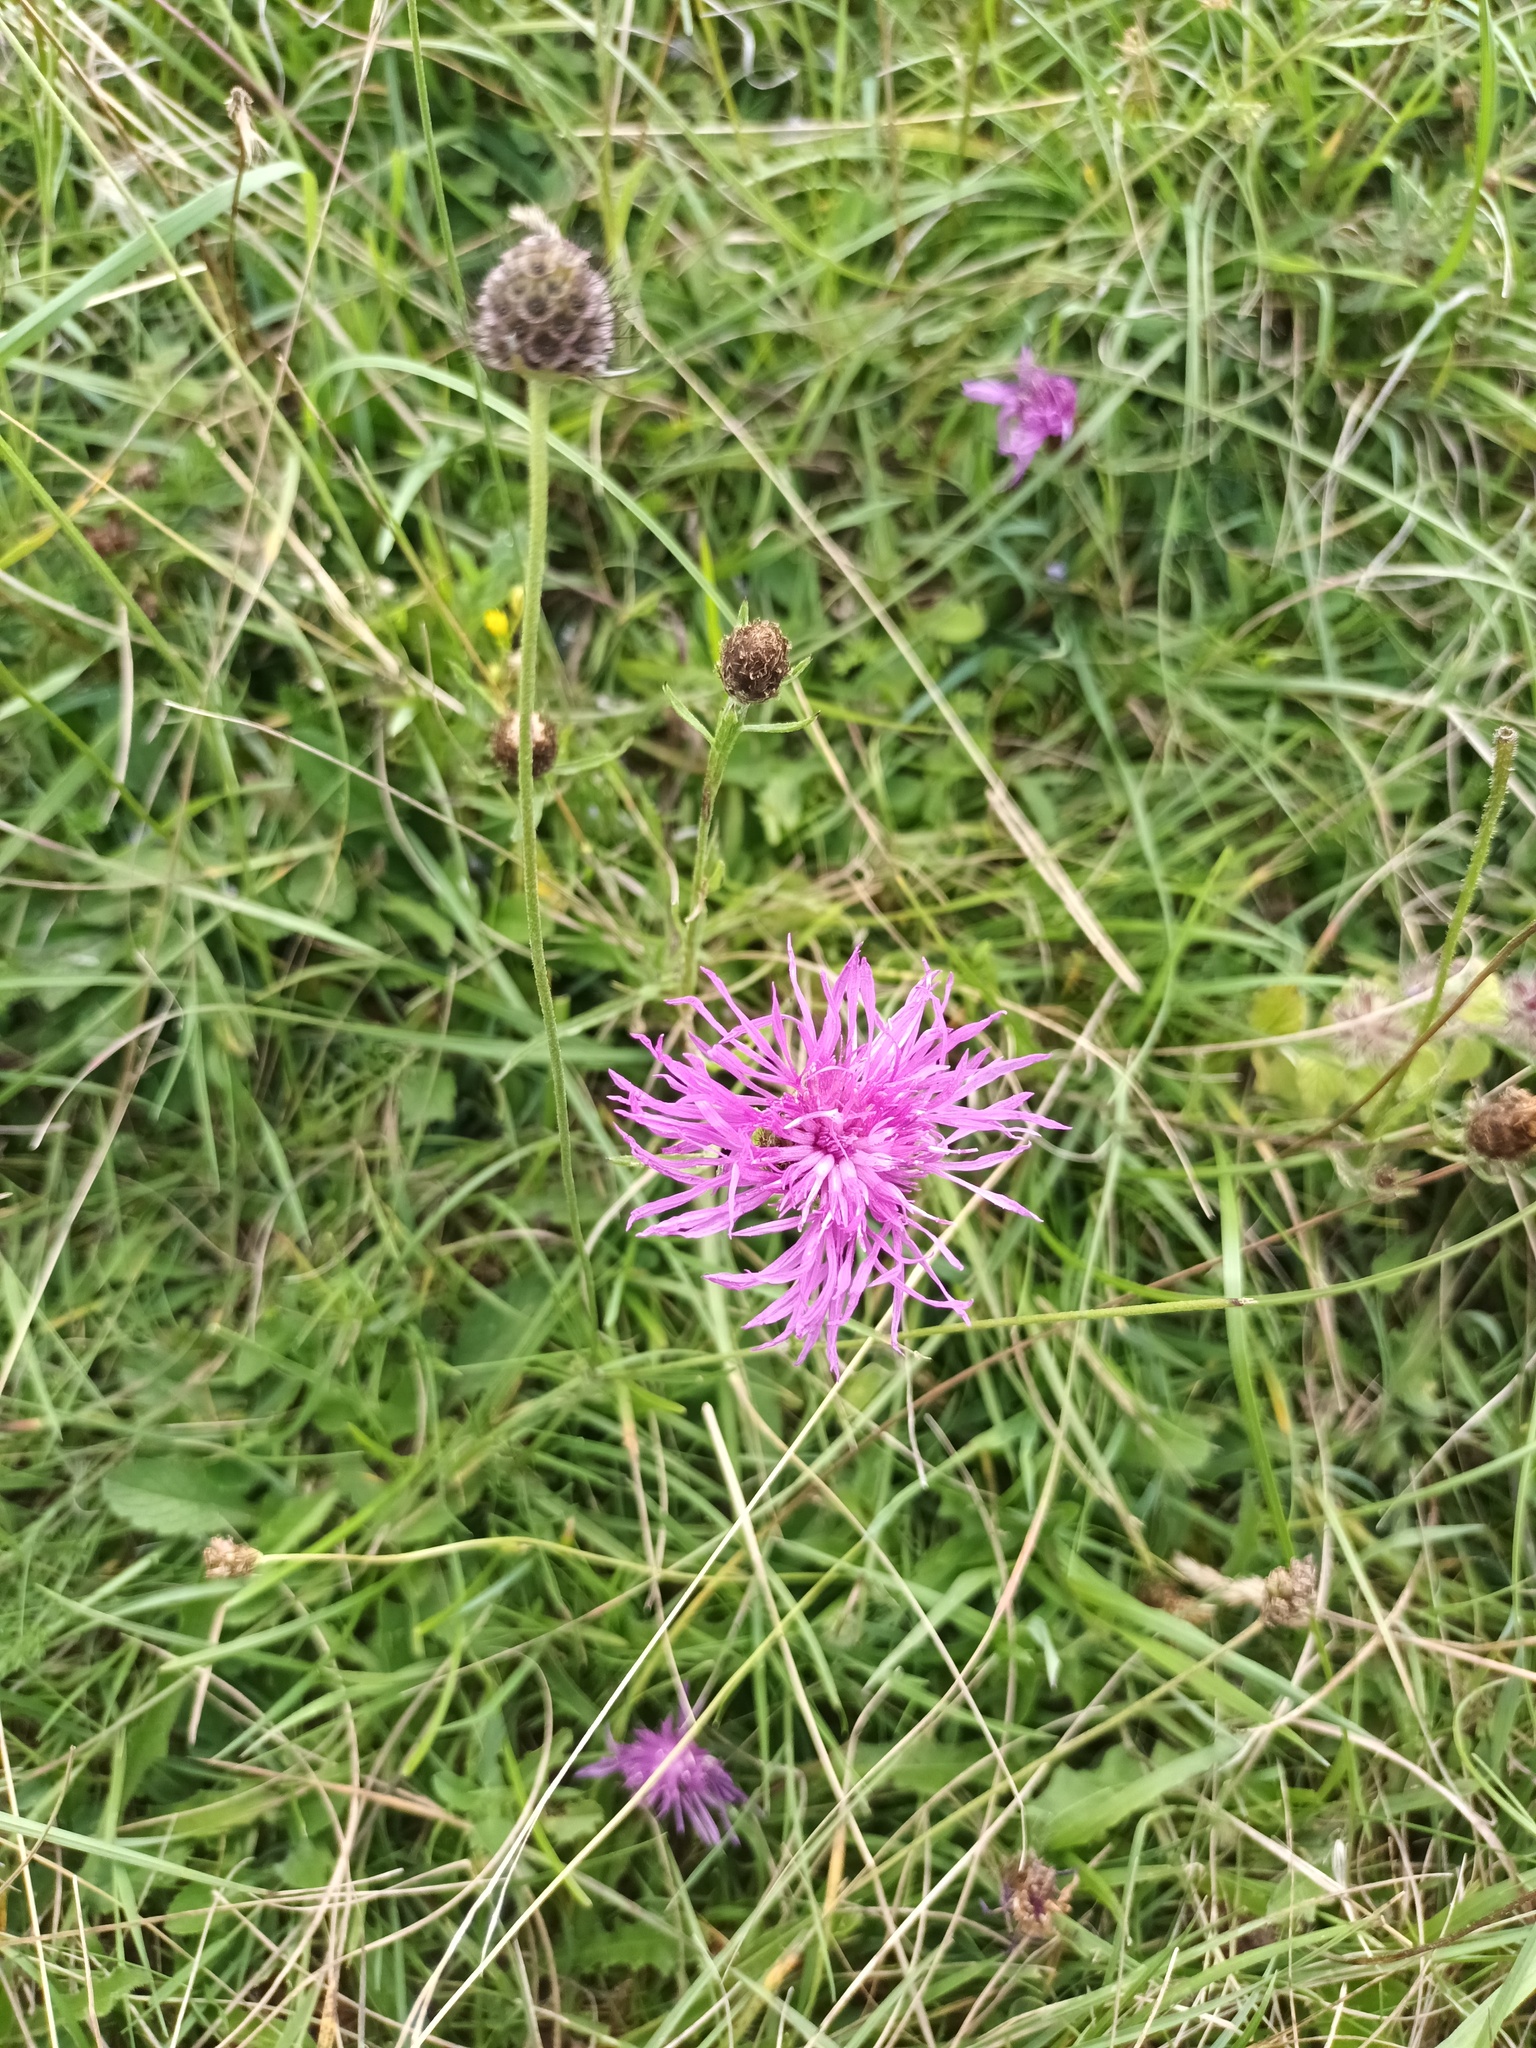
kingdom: Plantae
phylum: Tracheophyta
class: Magnoliopsida
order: Asterales
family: Asteraceae
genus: Centaurea
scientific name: Centaurea nigra
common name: Lesser knapweed
